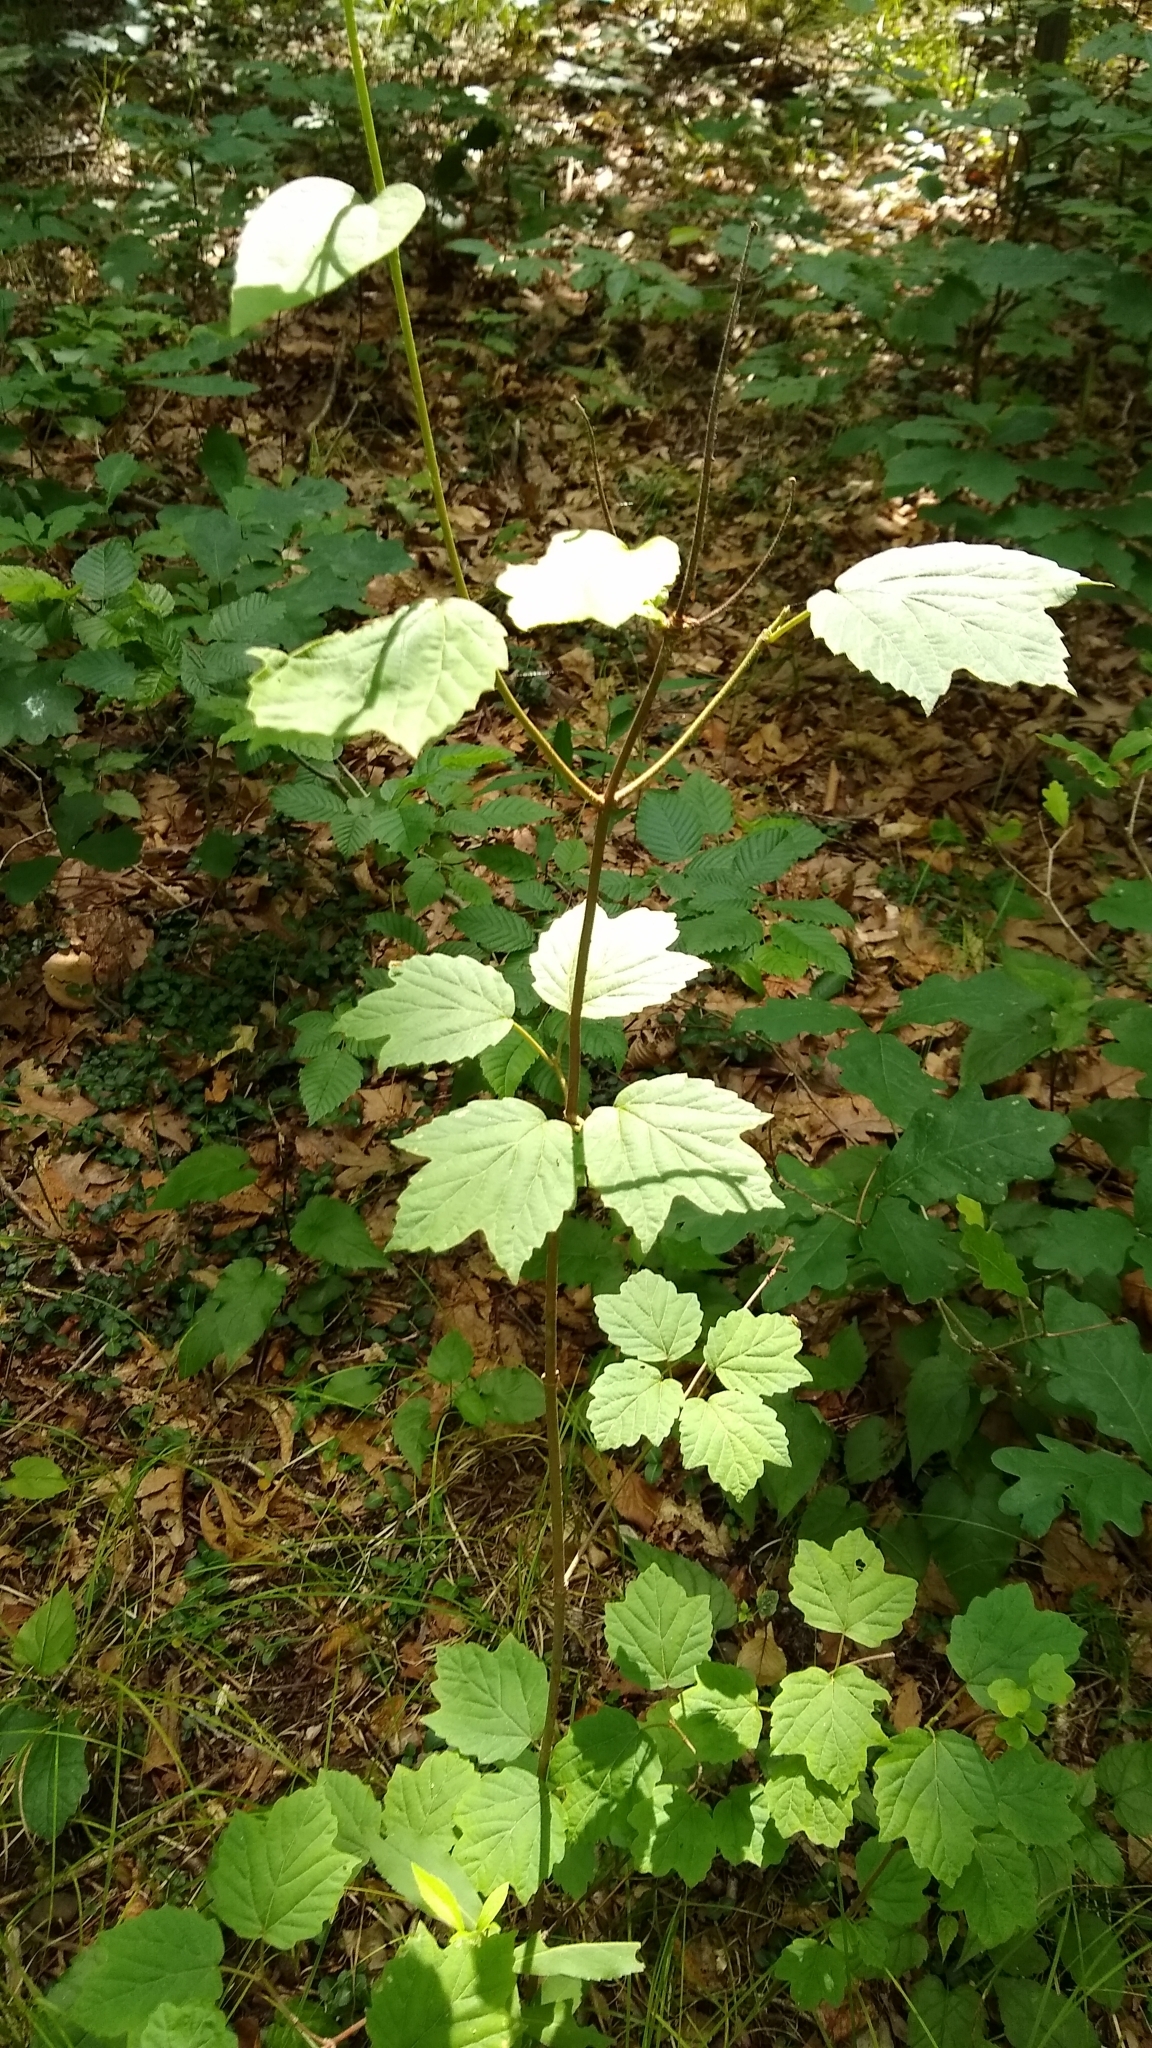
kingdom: Plantae
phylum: Tracheophyta
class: Magnoliopsida
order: Dipsacales
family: Viburnaceae
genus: Viburnum
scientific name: Viburnum acerifolium
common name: Dockmackie
